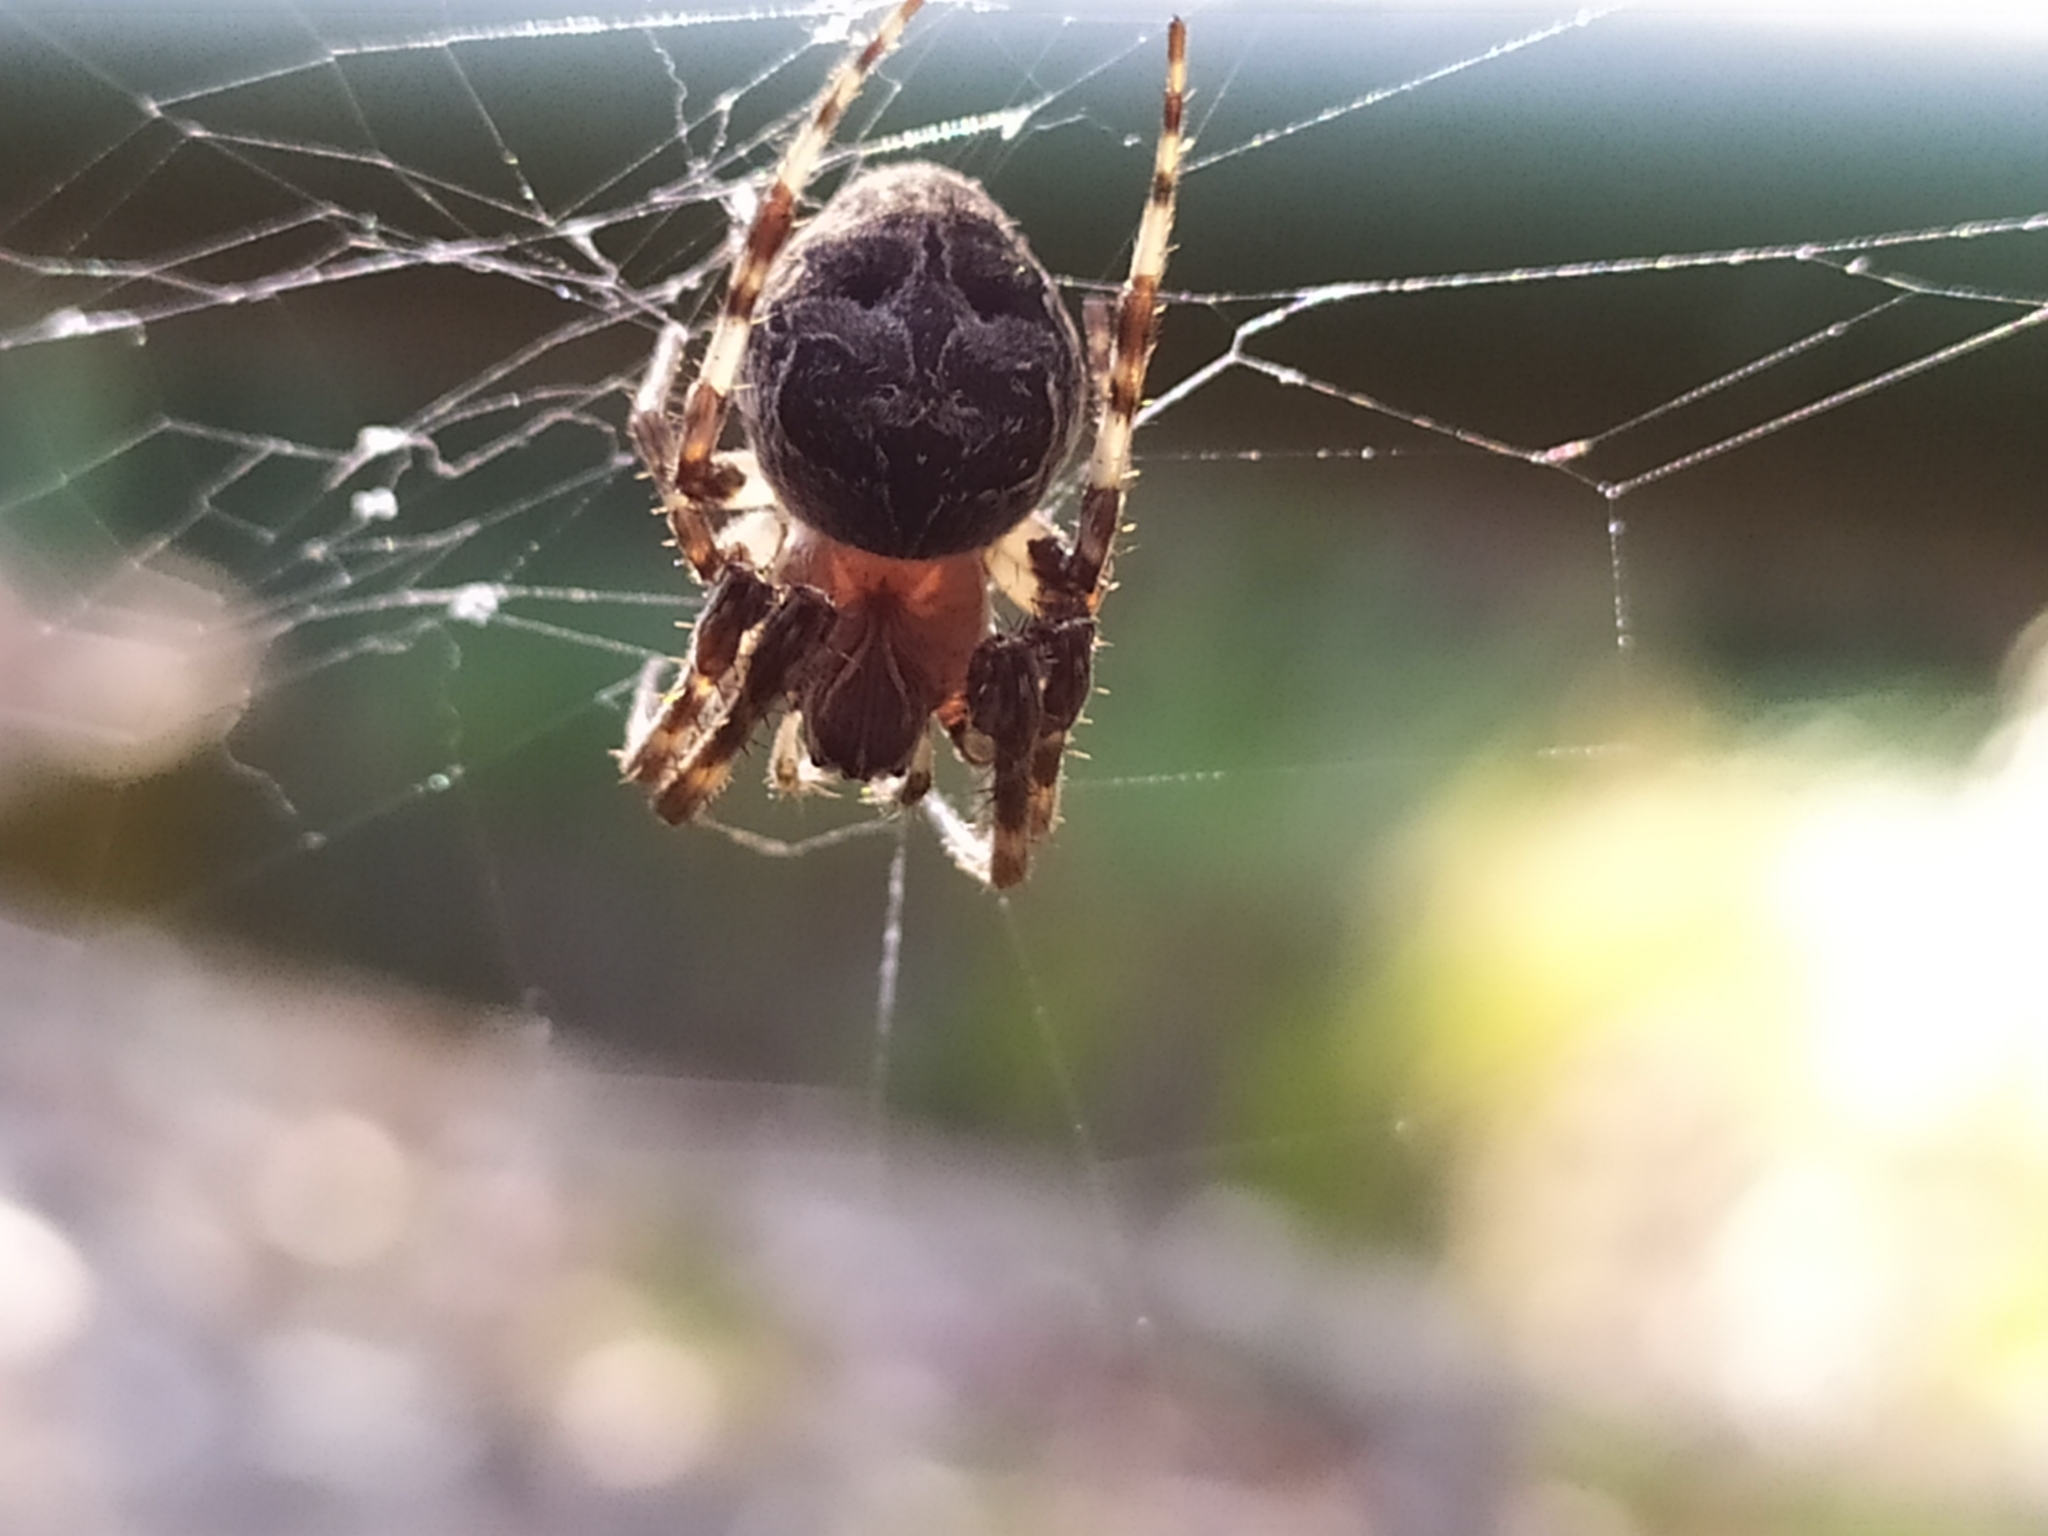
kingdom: Animalia
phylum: Arthropoda
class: Arachnida
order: Araneae
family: Araneidae
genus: Larinioides
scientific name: Larinioides sclopetarius
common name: Bridge orbweaver
